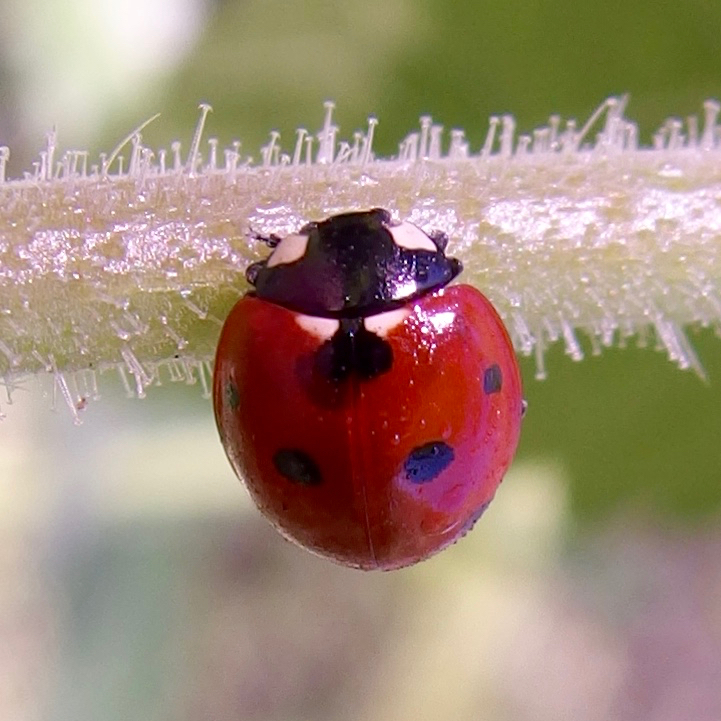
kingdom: Animalia
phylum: Arthropoda
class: Insecta
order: Coleoptera
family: Coccinellidae
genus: Coccinella
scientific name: Coccinella septempunctata
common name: Sevenspotted lady beetle
